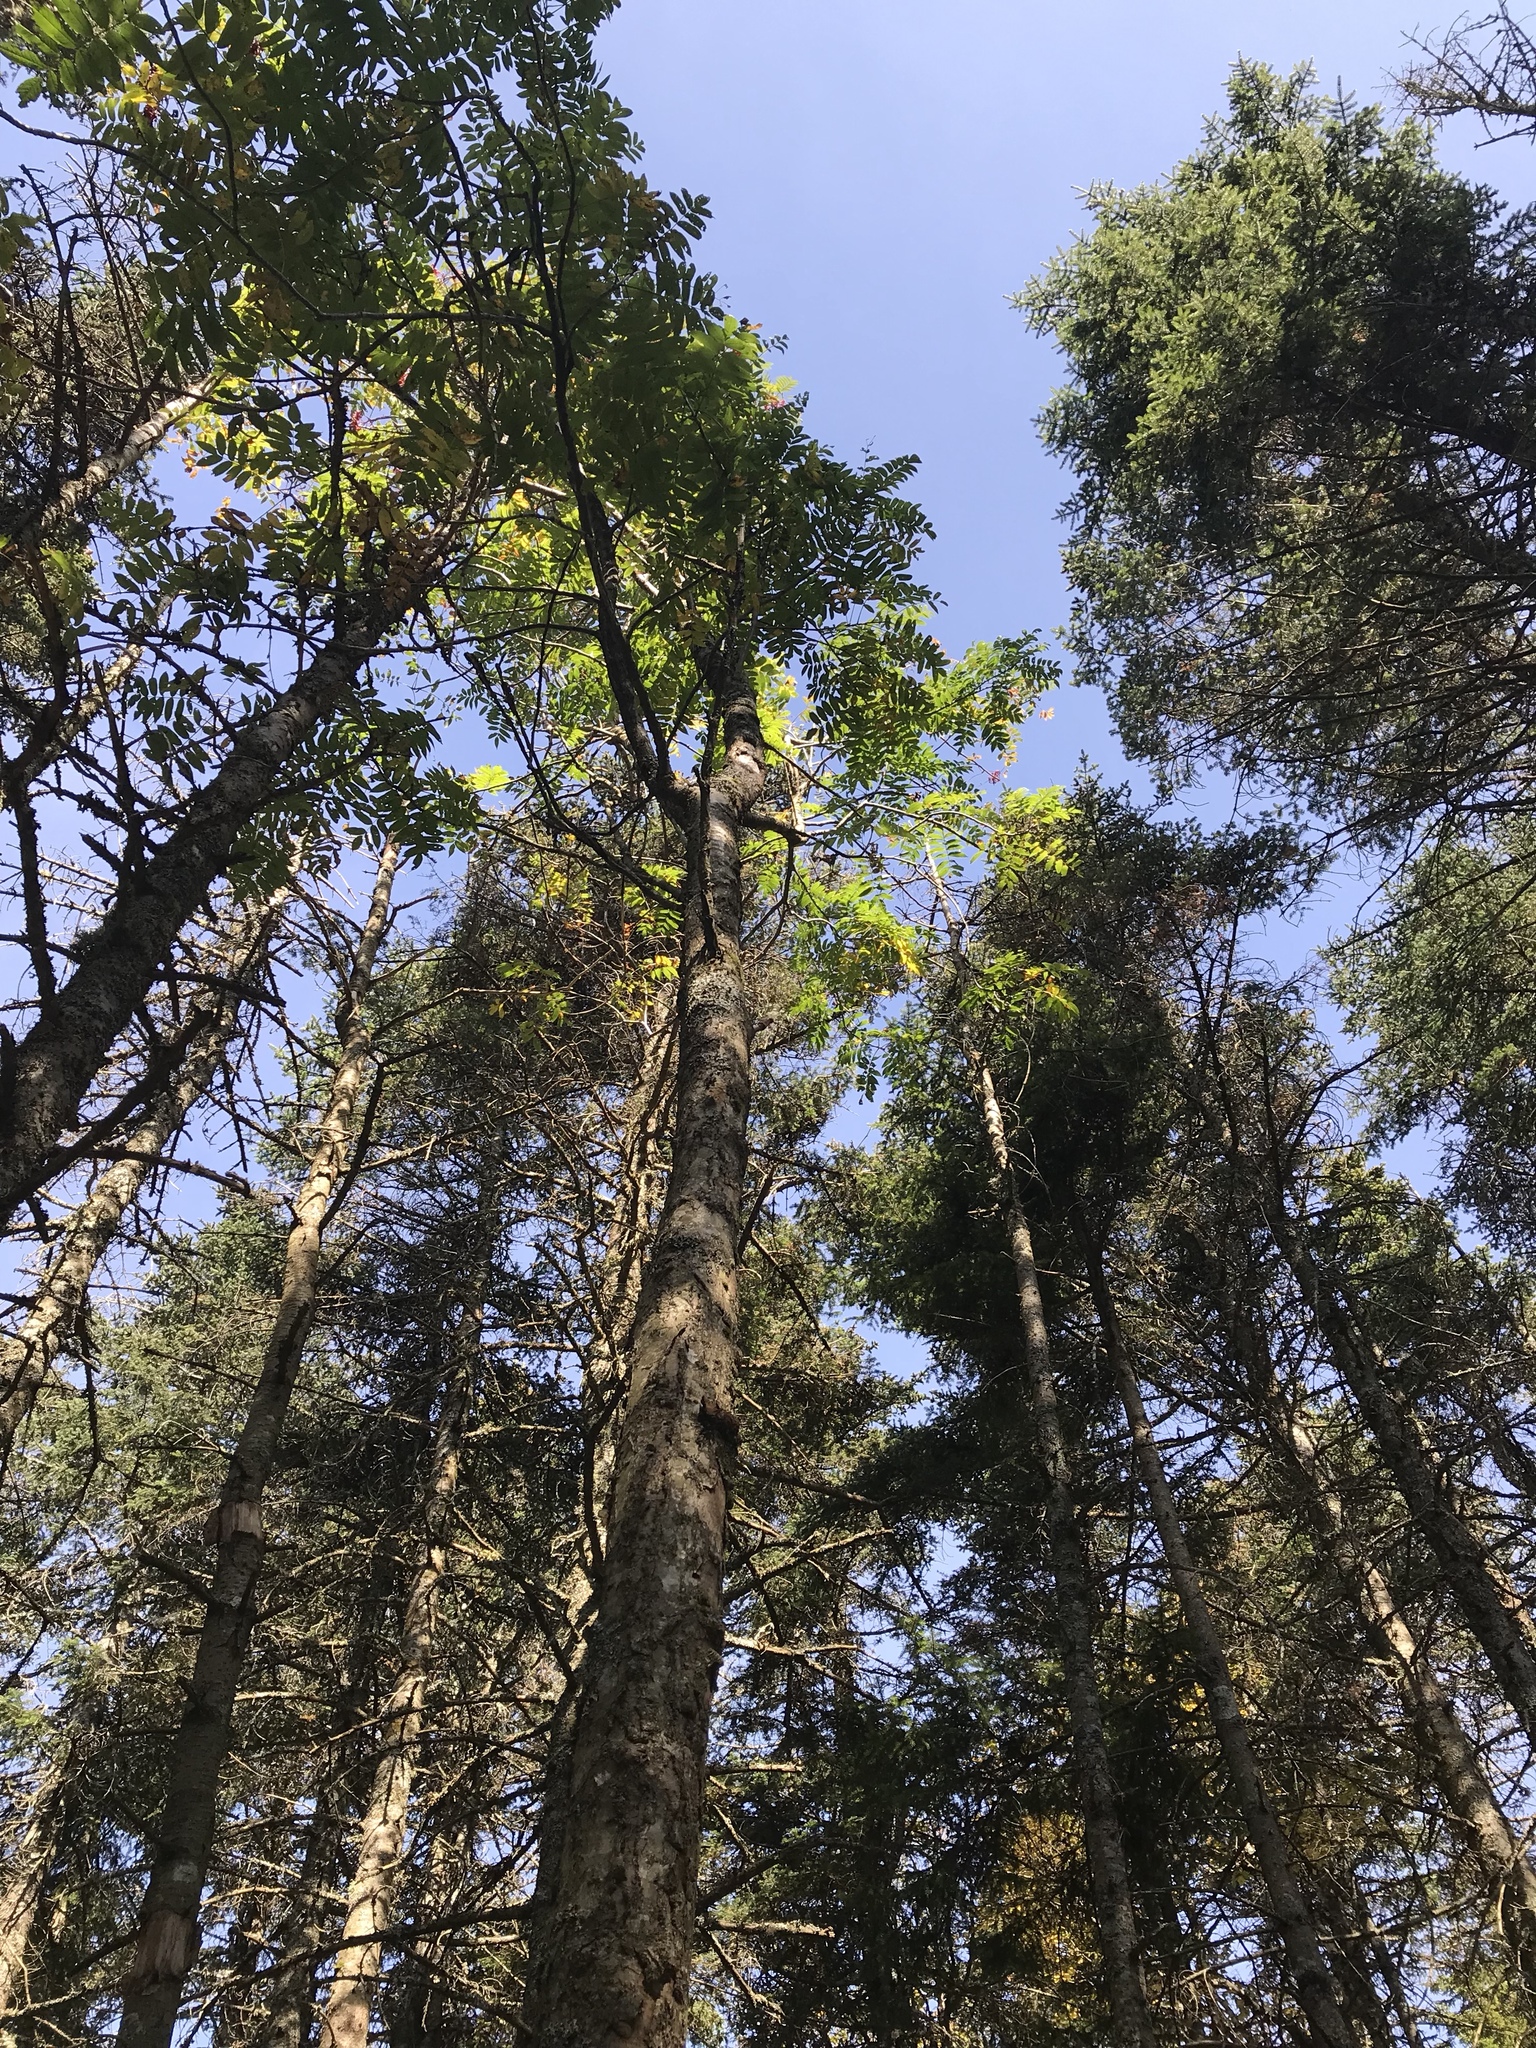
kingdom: Plantae
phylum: Tracheophyta
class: Magnoliopsida
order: Rosales
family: Rosaceae
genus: Sorbus
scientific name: Sorbus americana
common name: American mountain-ash
